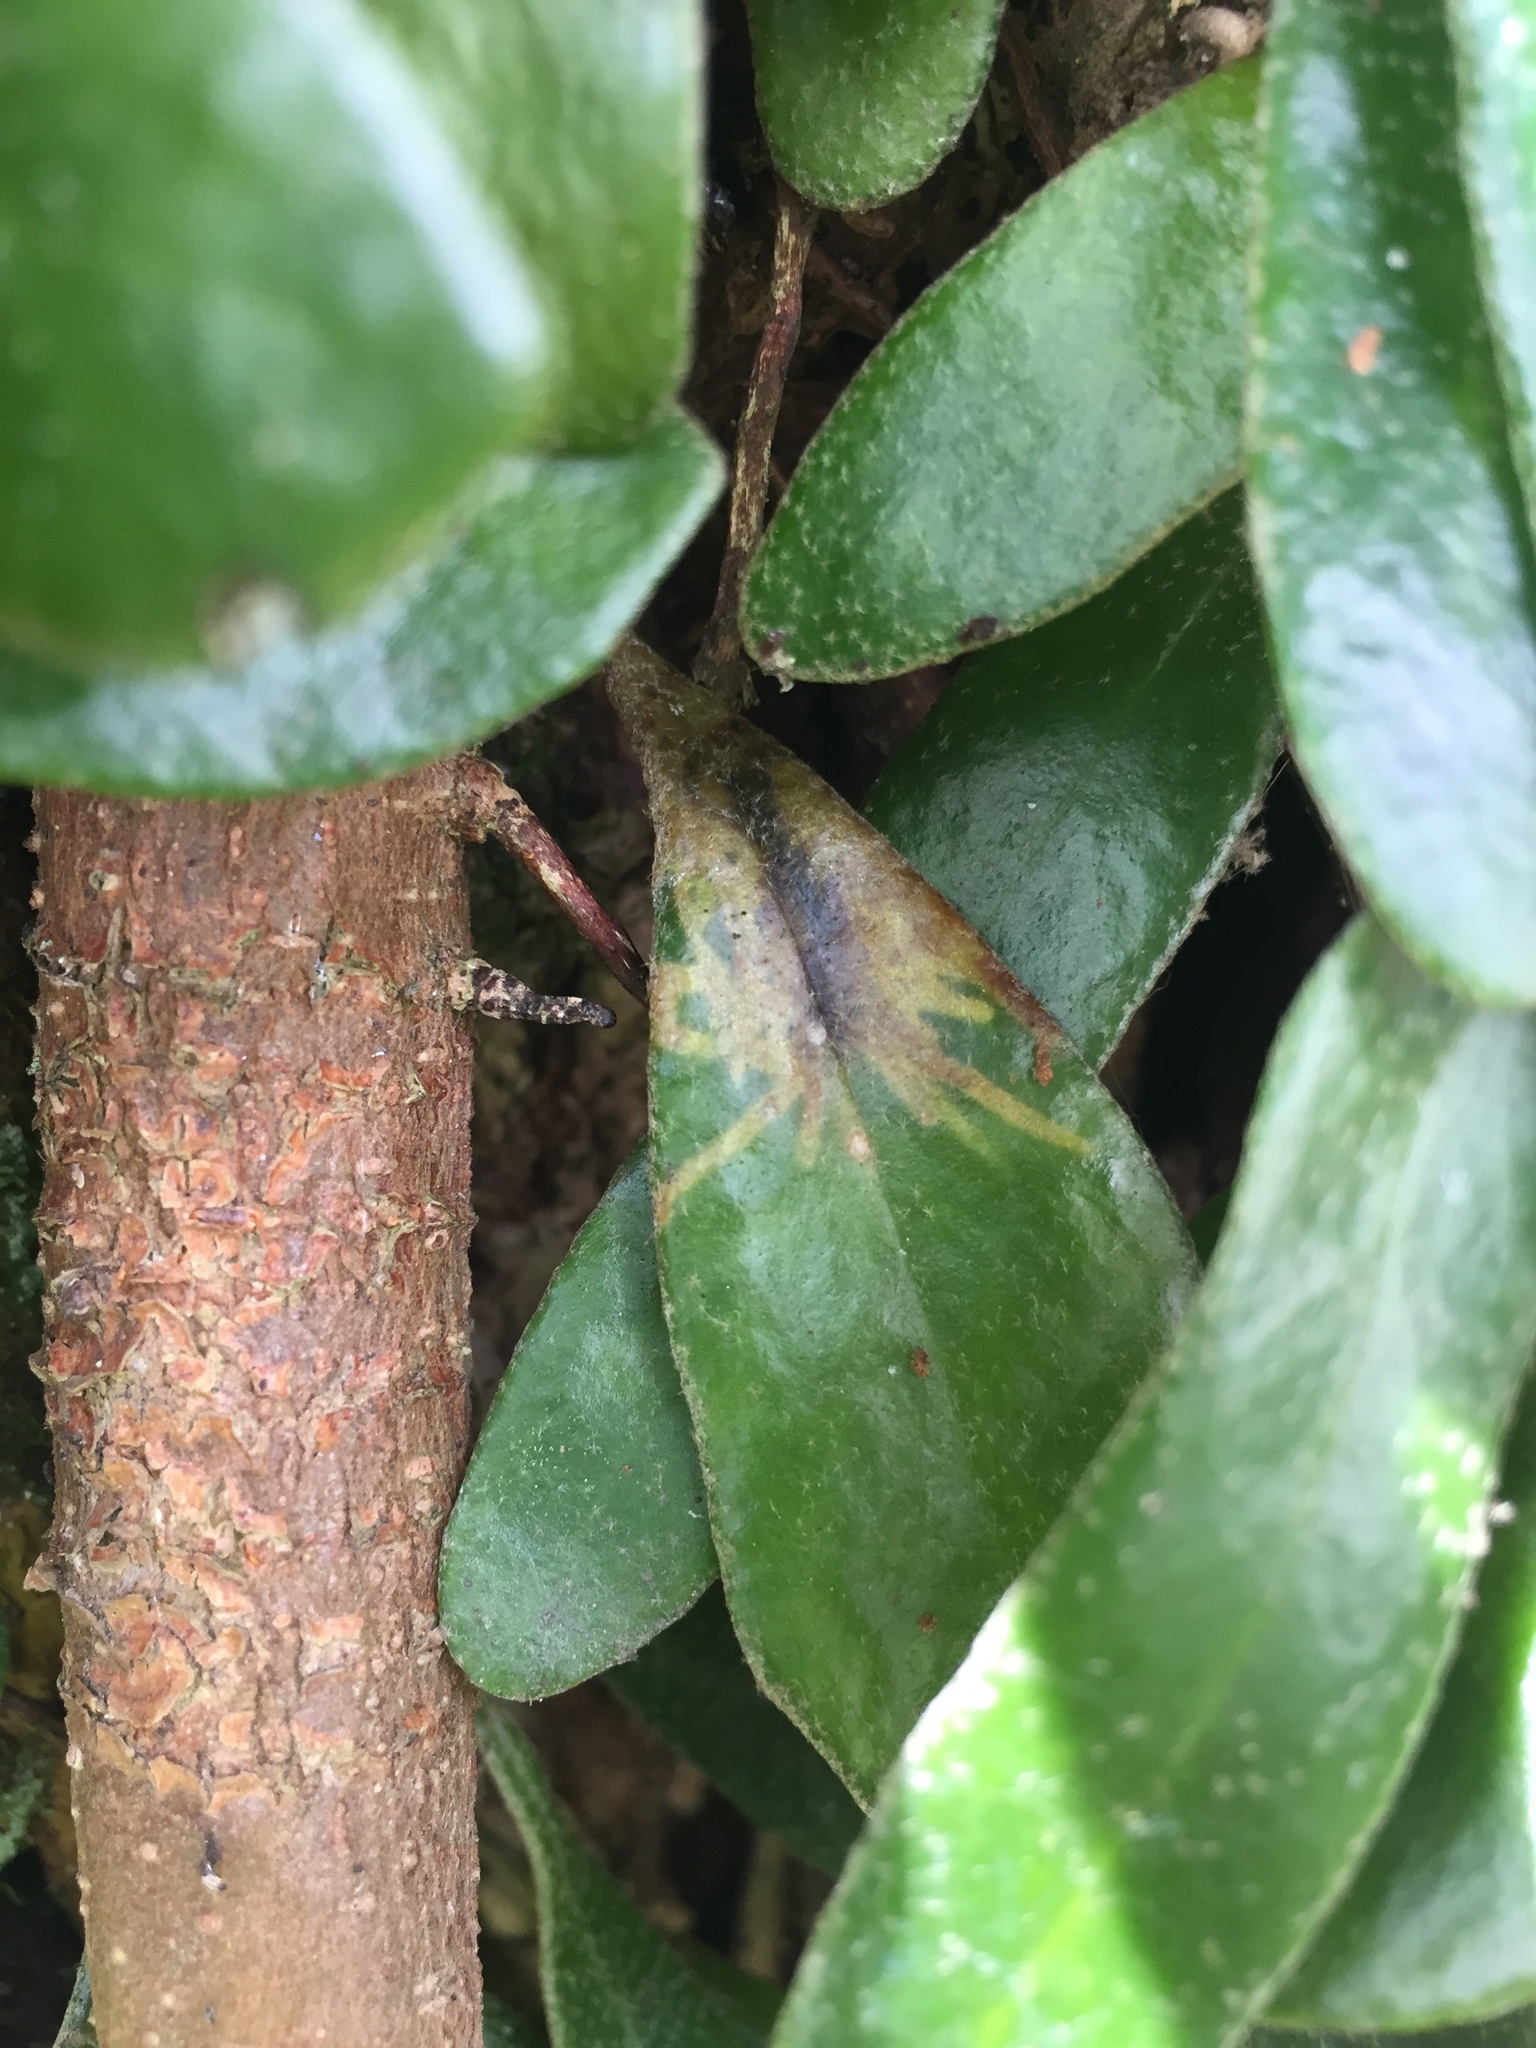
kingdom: Animalia
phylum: Arthropoda
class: Insecta
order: Lepidoptera
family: Tortricidae
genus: Philocryptica
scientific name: Philocryptica polypodii
